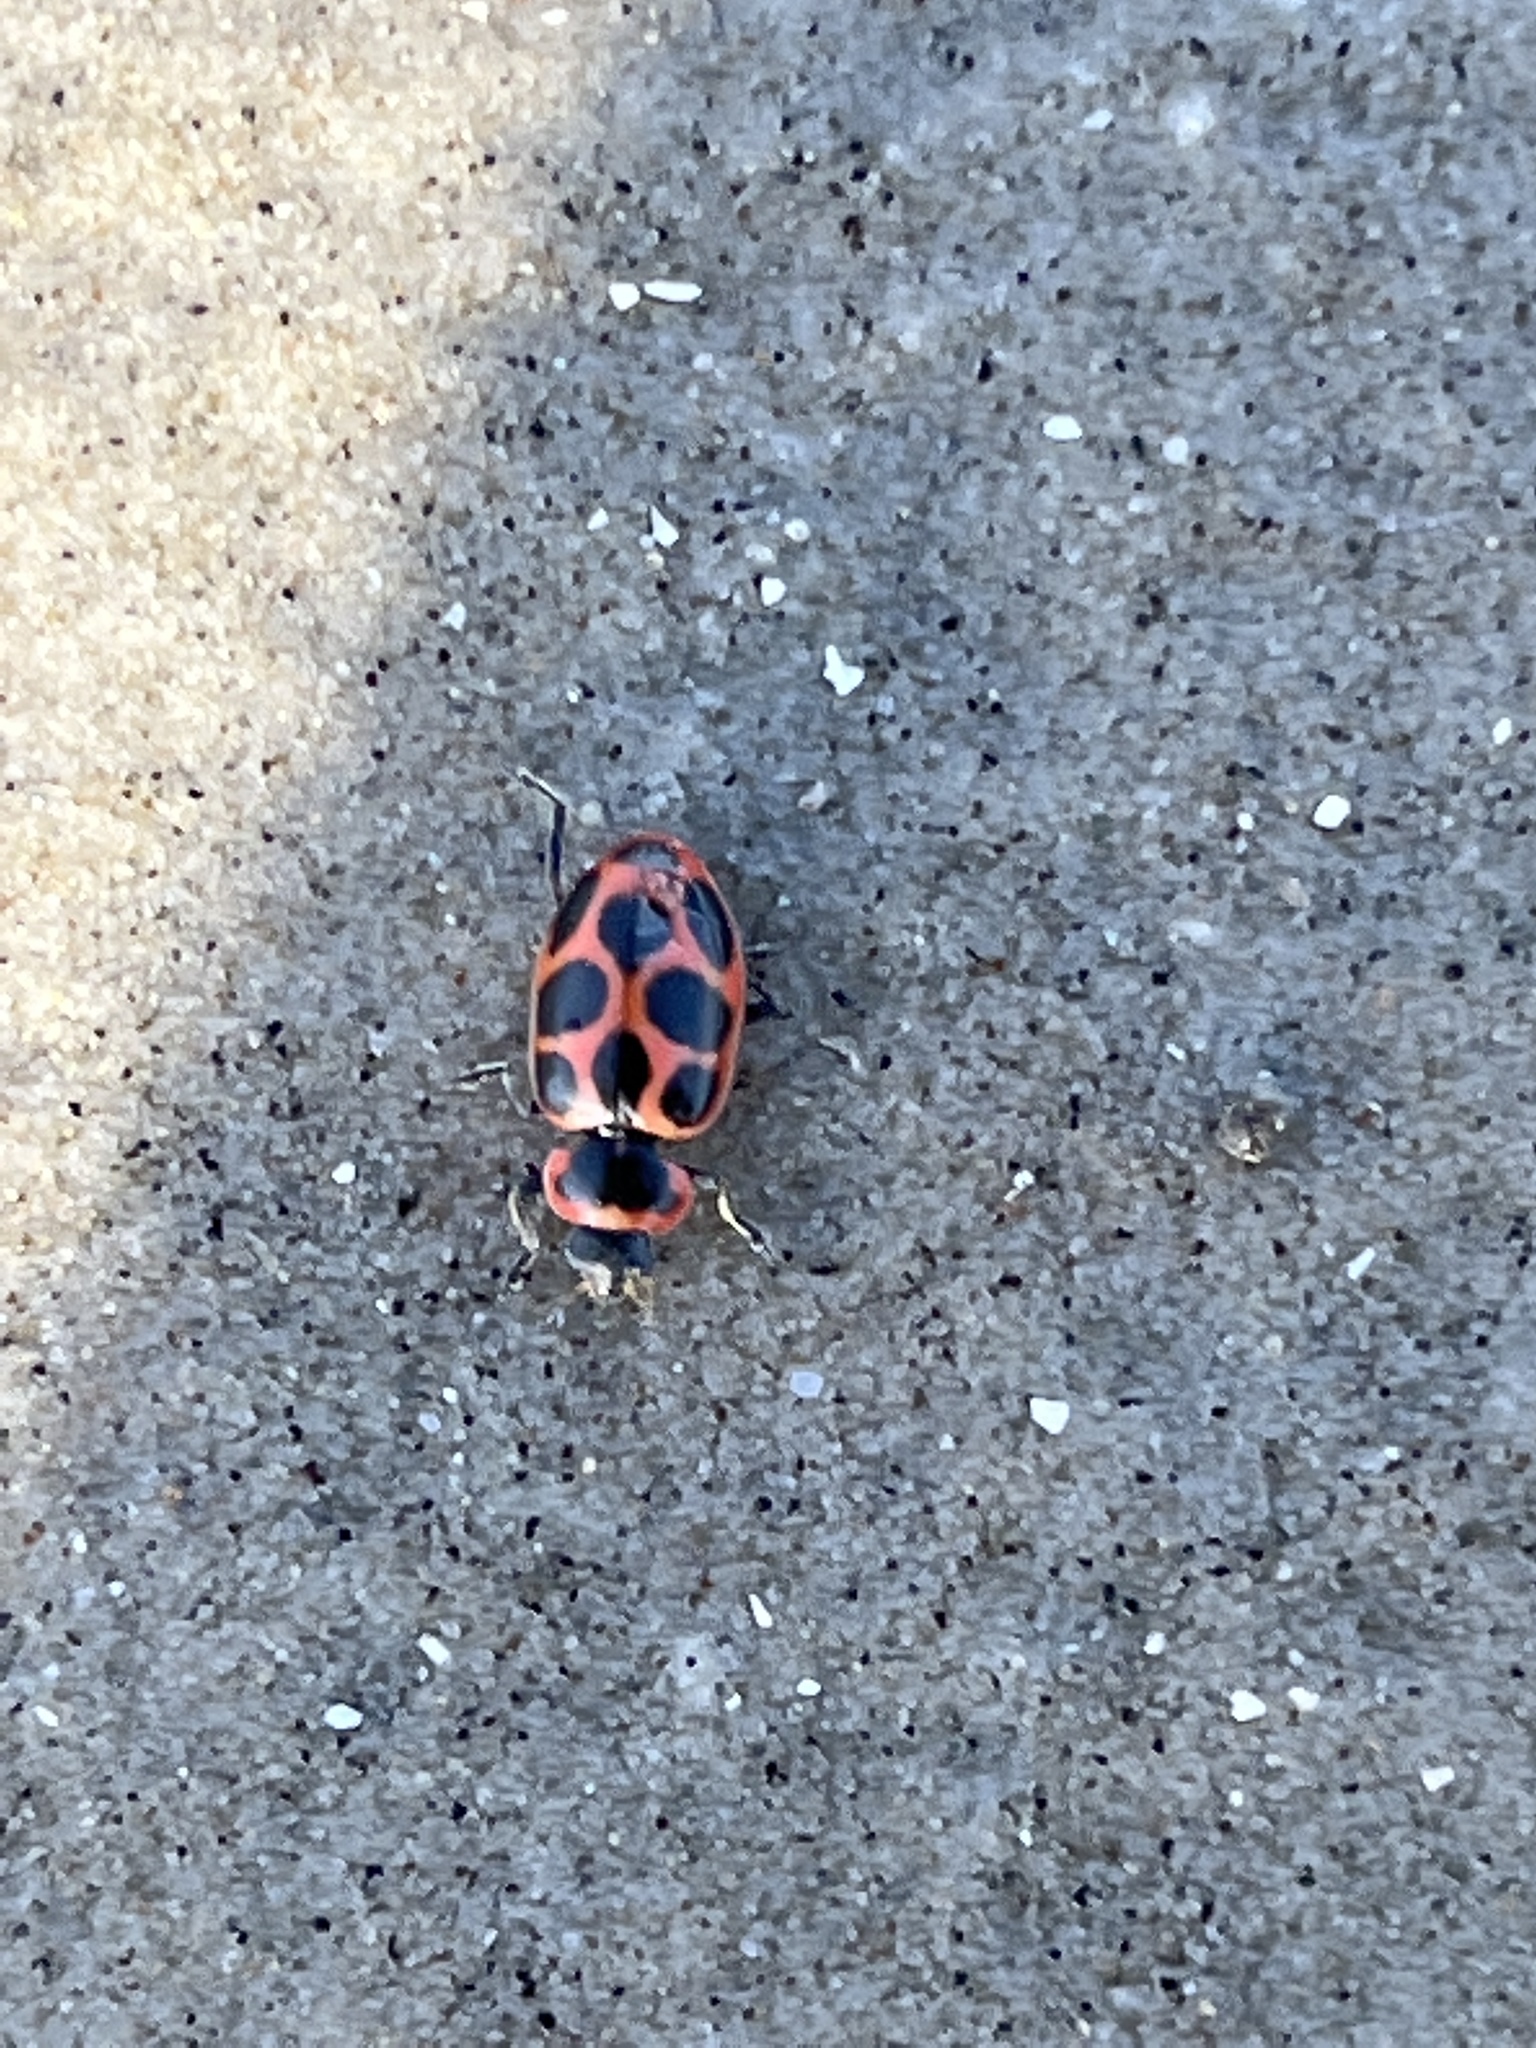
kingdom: Animalia
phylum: Arthropoda
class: Insecta
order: Coleoptera
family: Coccinellidae
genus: Naemia
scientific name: Naemia seriata
